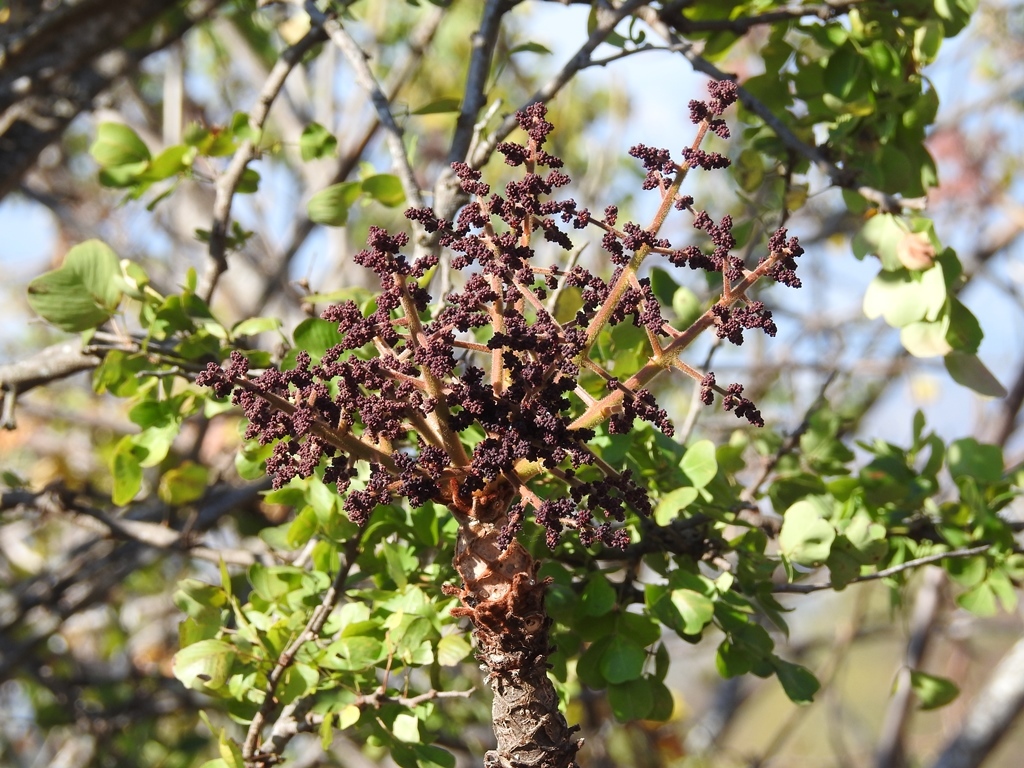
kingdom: Plantae
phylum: Tracheophyta
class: Magnoliopsida
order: Sapindales
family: Anacardiaceae
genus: Comocladia
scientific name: Comocladia guatemalensis
